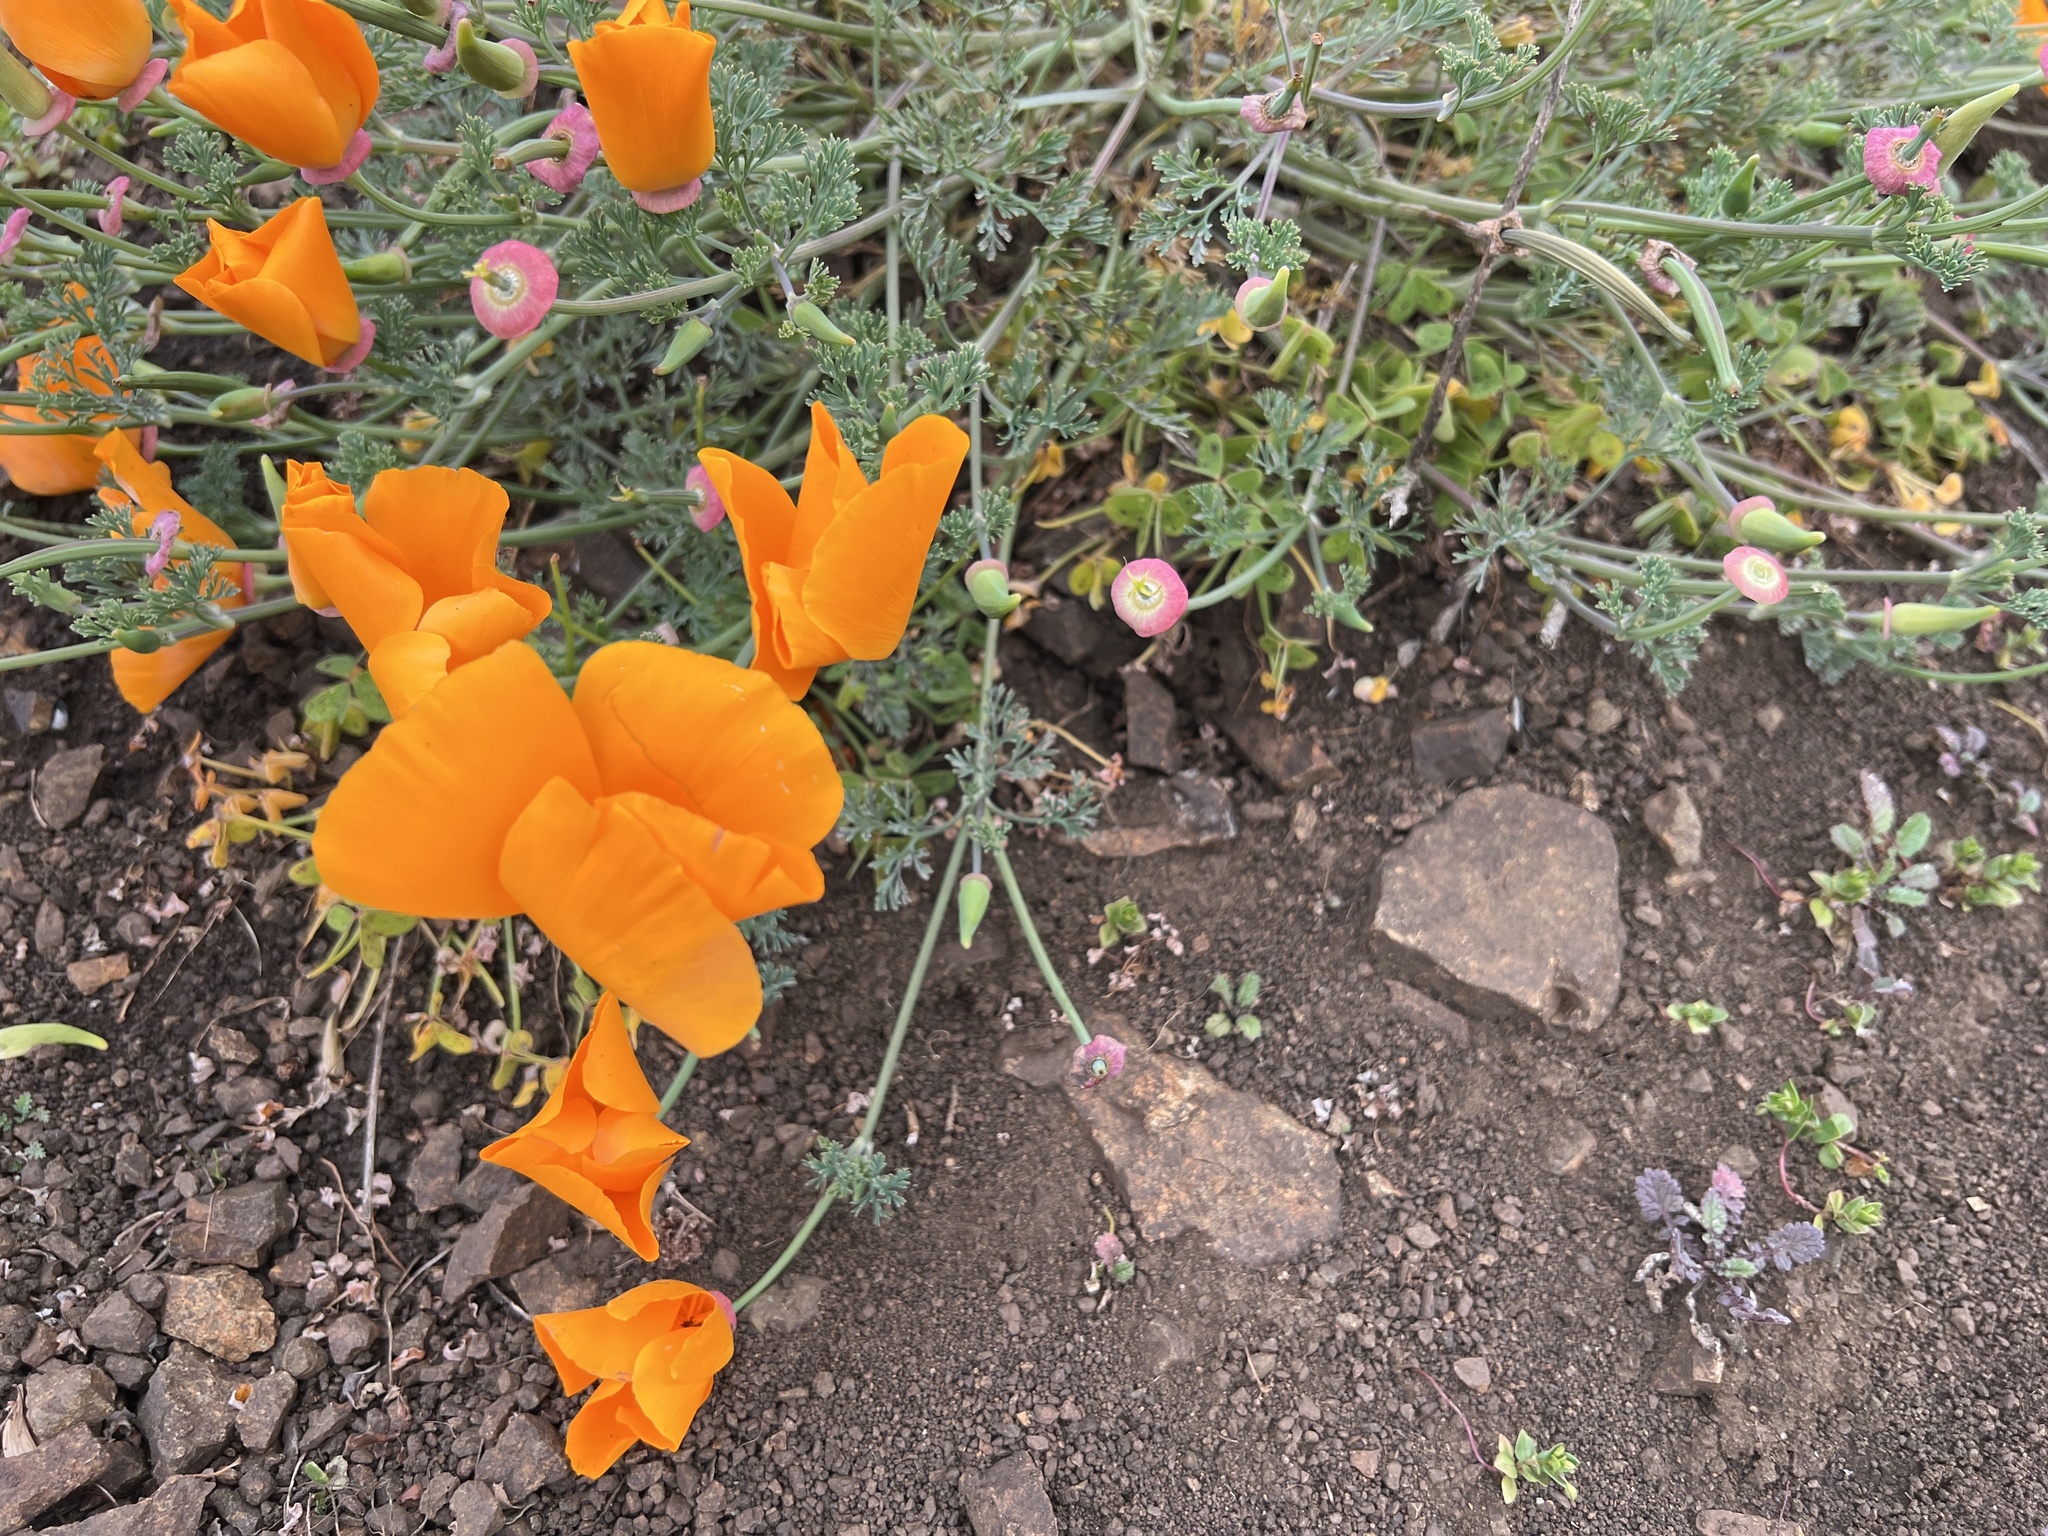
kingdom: Plantae
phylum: Tracheophyta
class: Magnoliopsida
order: Ranunculales
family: Papaveraceae
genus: Eschscholzia
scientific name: Eschscholzia californica
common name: California poppy
